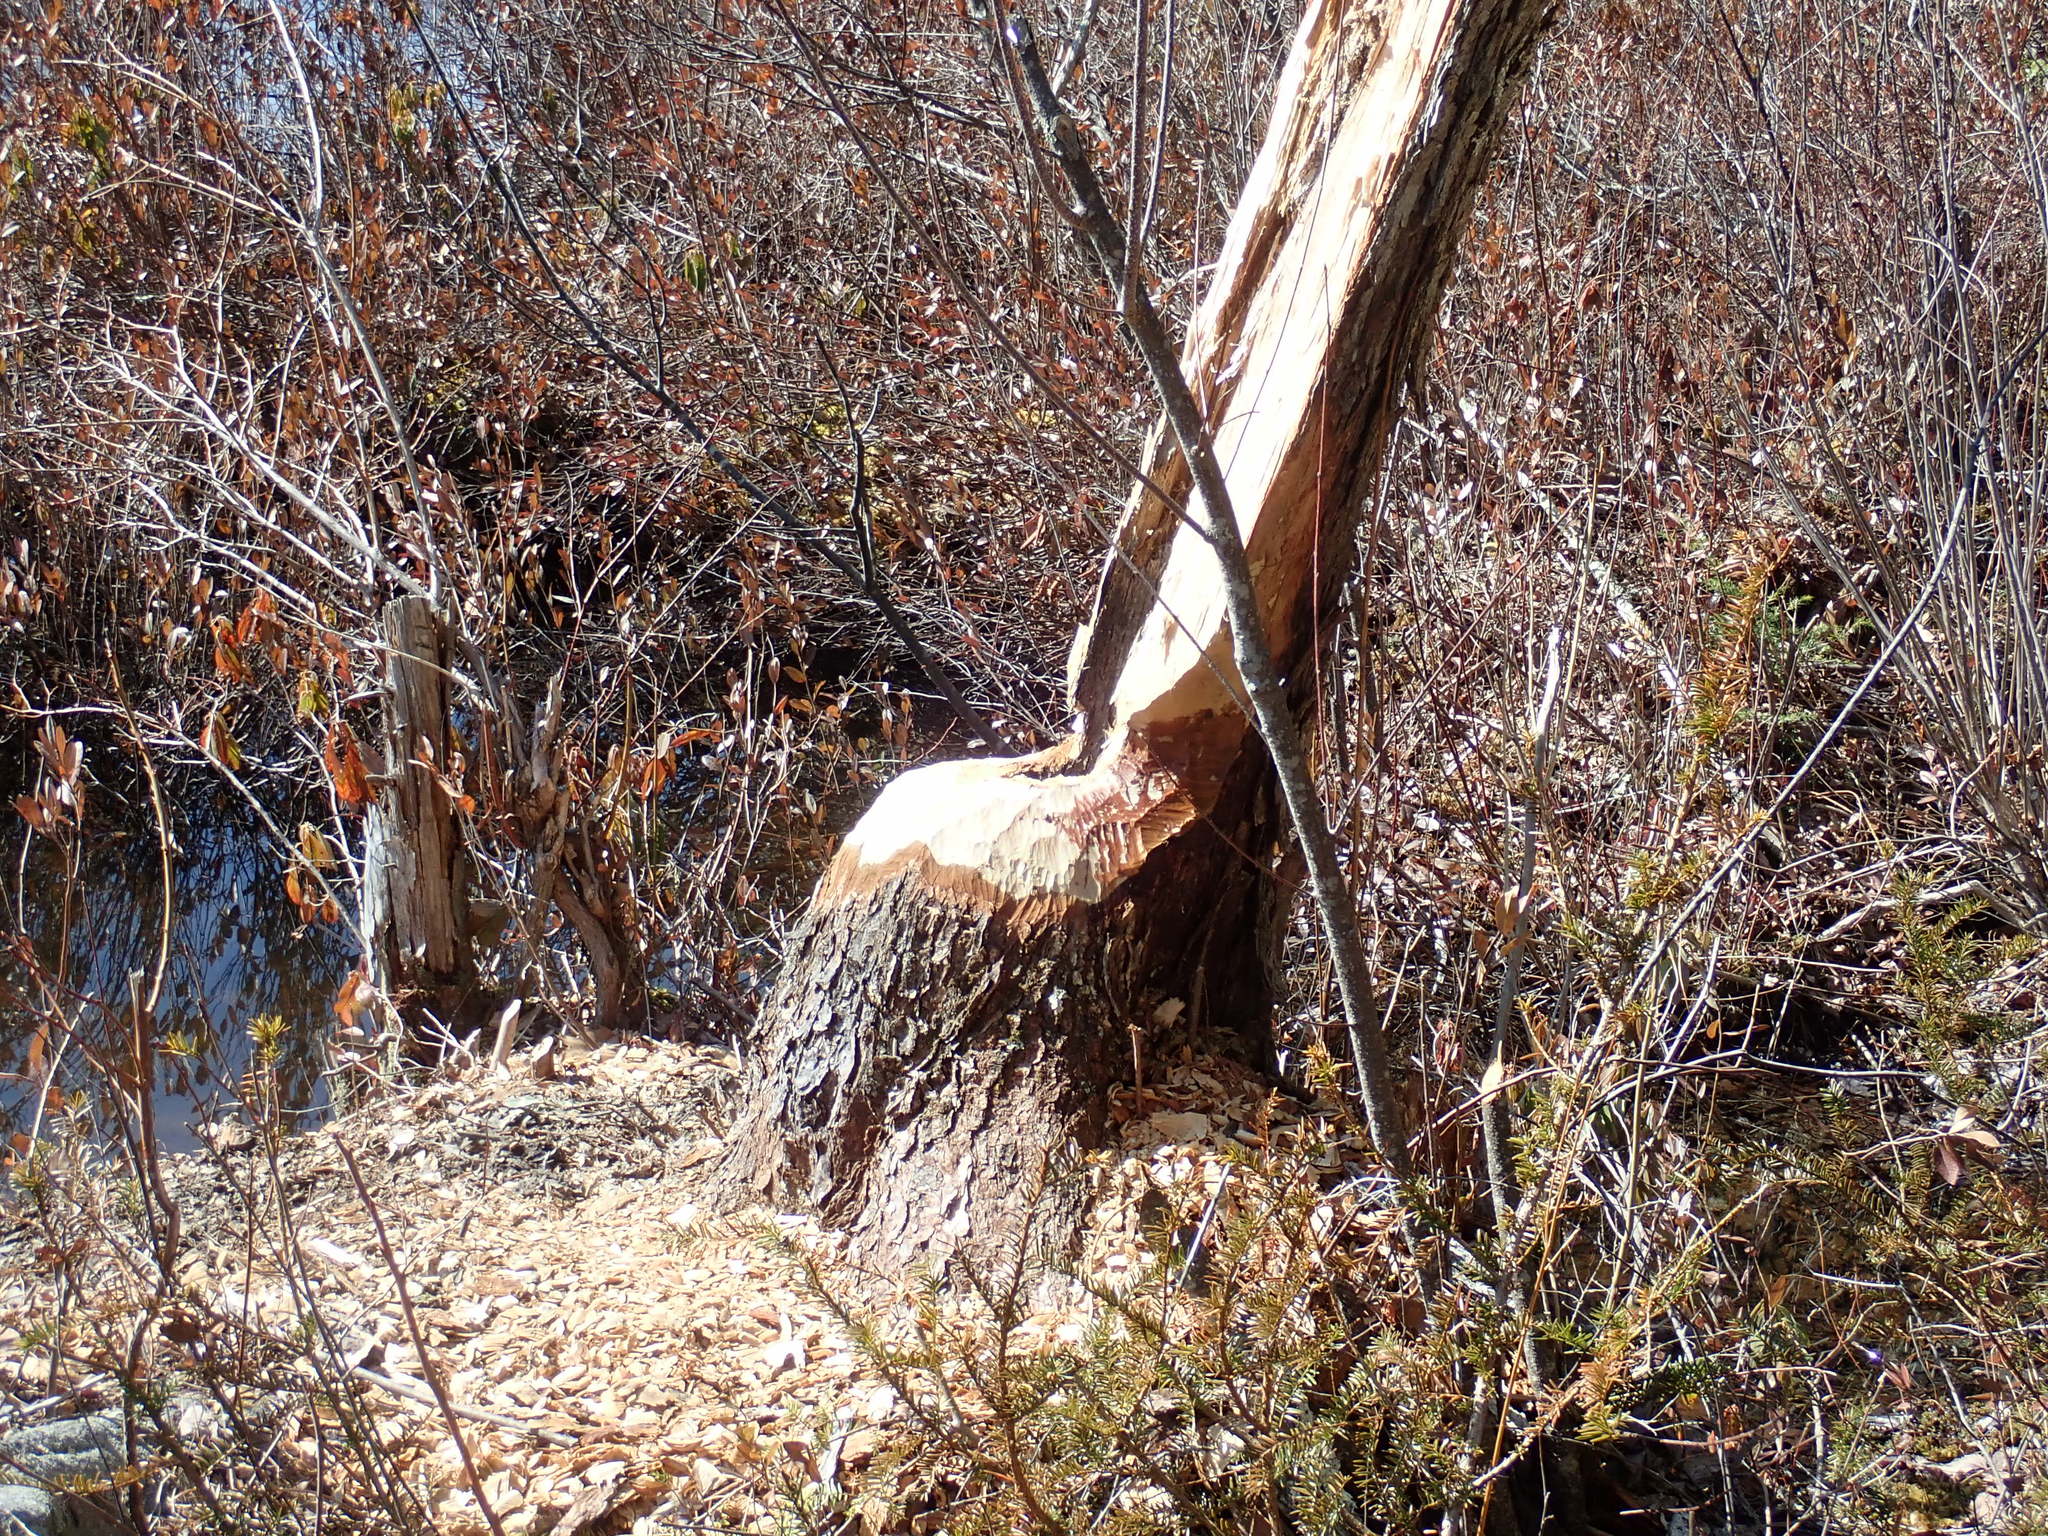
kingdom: Animalia
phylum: Chordata
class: Mammalia
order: Rodentia
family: Castoridae
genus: Castor
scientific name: Castor canadensis
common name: American beaver
